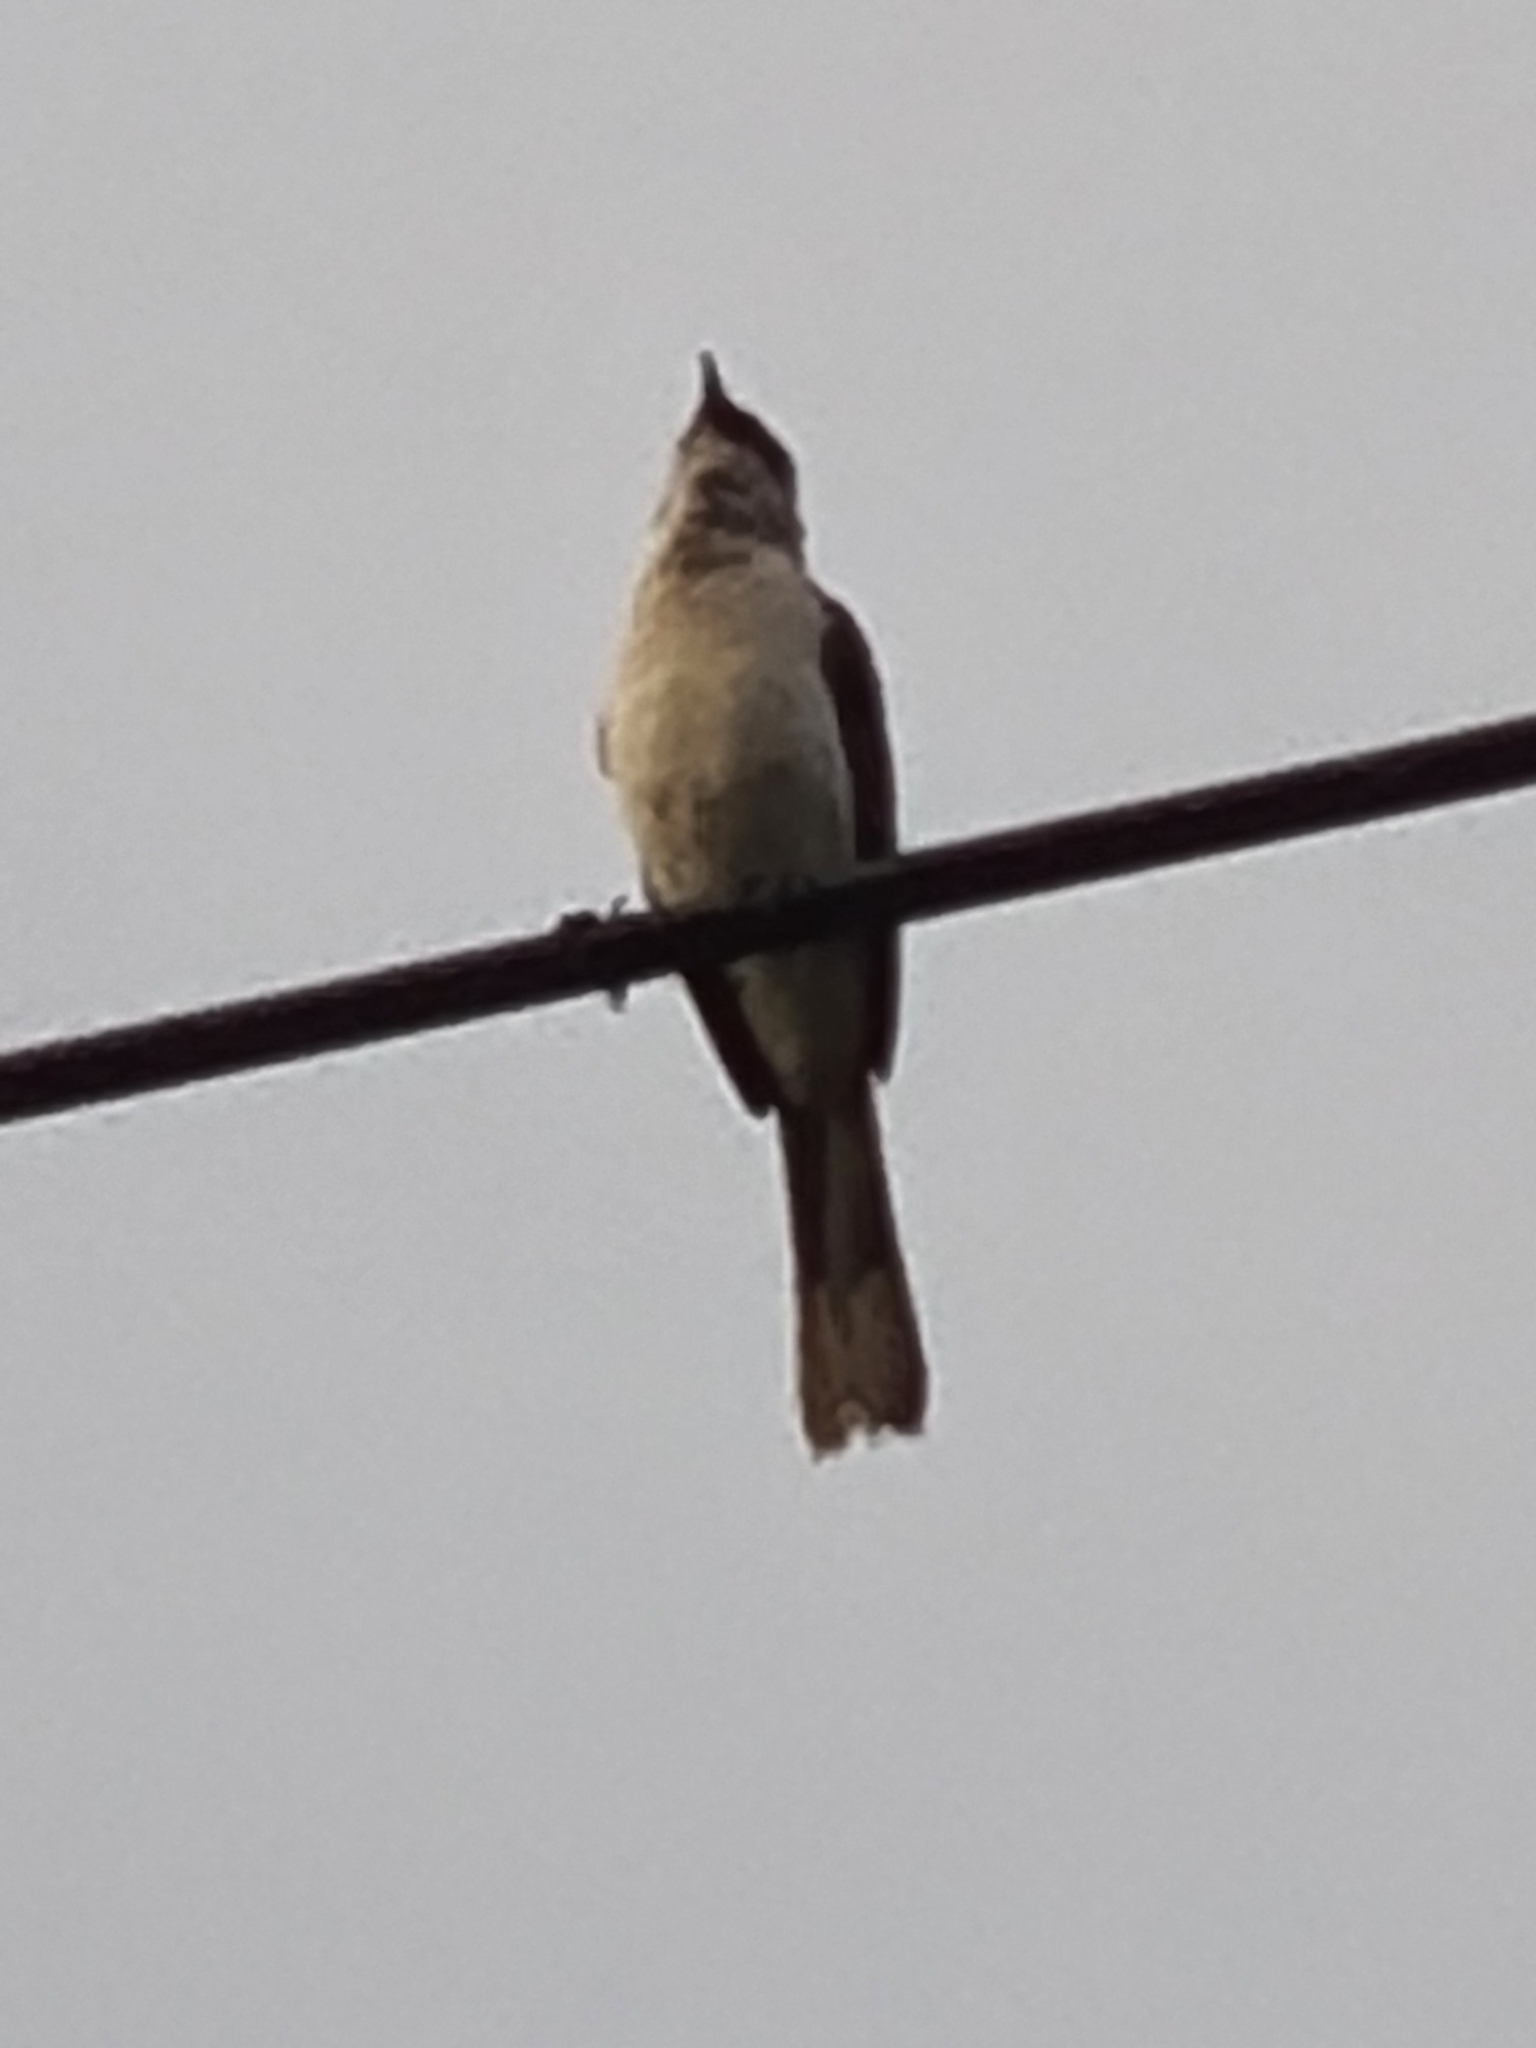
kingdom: Animalia
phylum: Chordata
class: Aves
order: Passeriformes
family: Mimidae
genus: Mimus
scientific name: Mimus gilvus
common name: Tropical mockingbird
